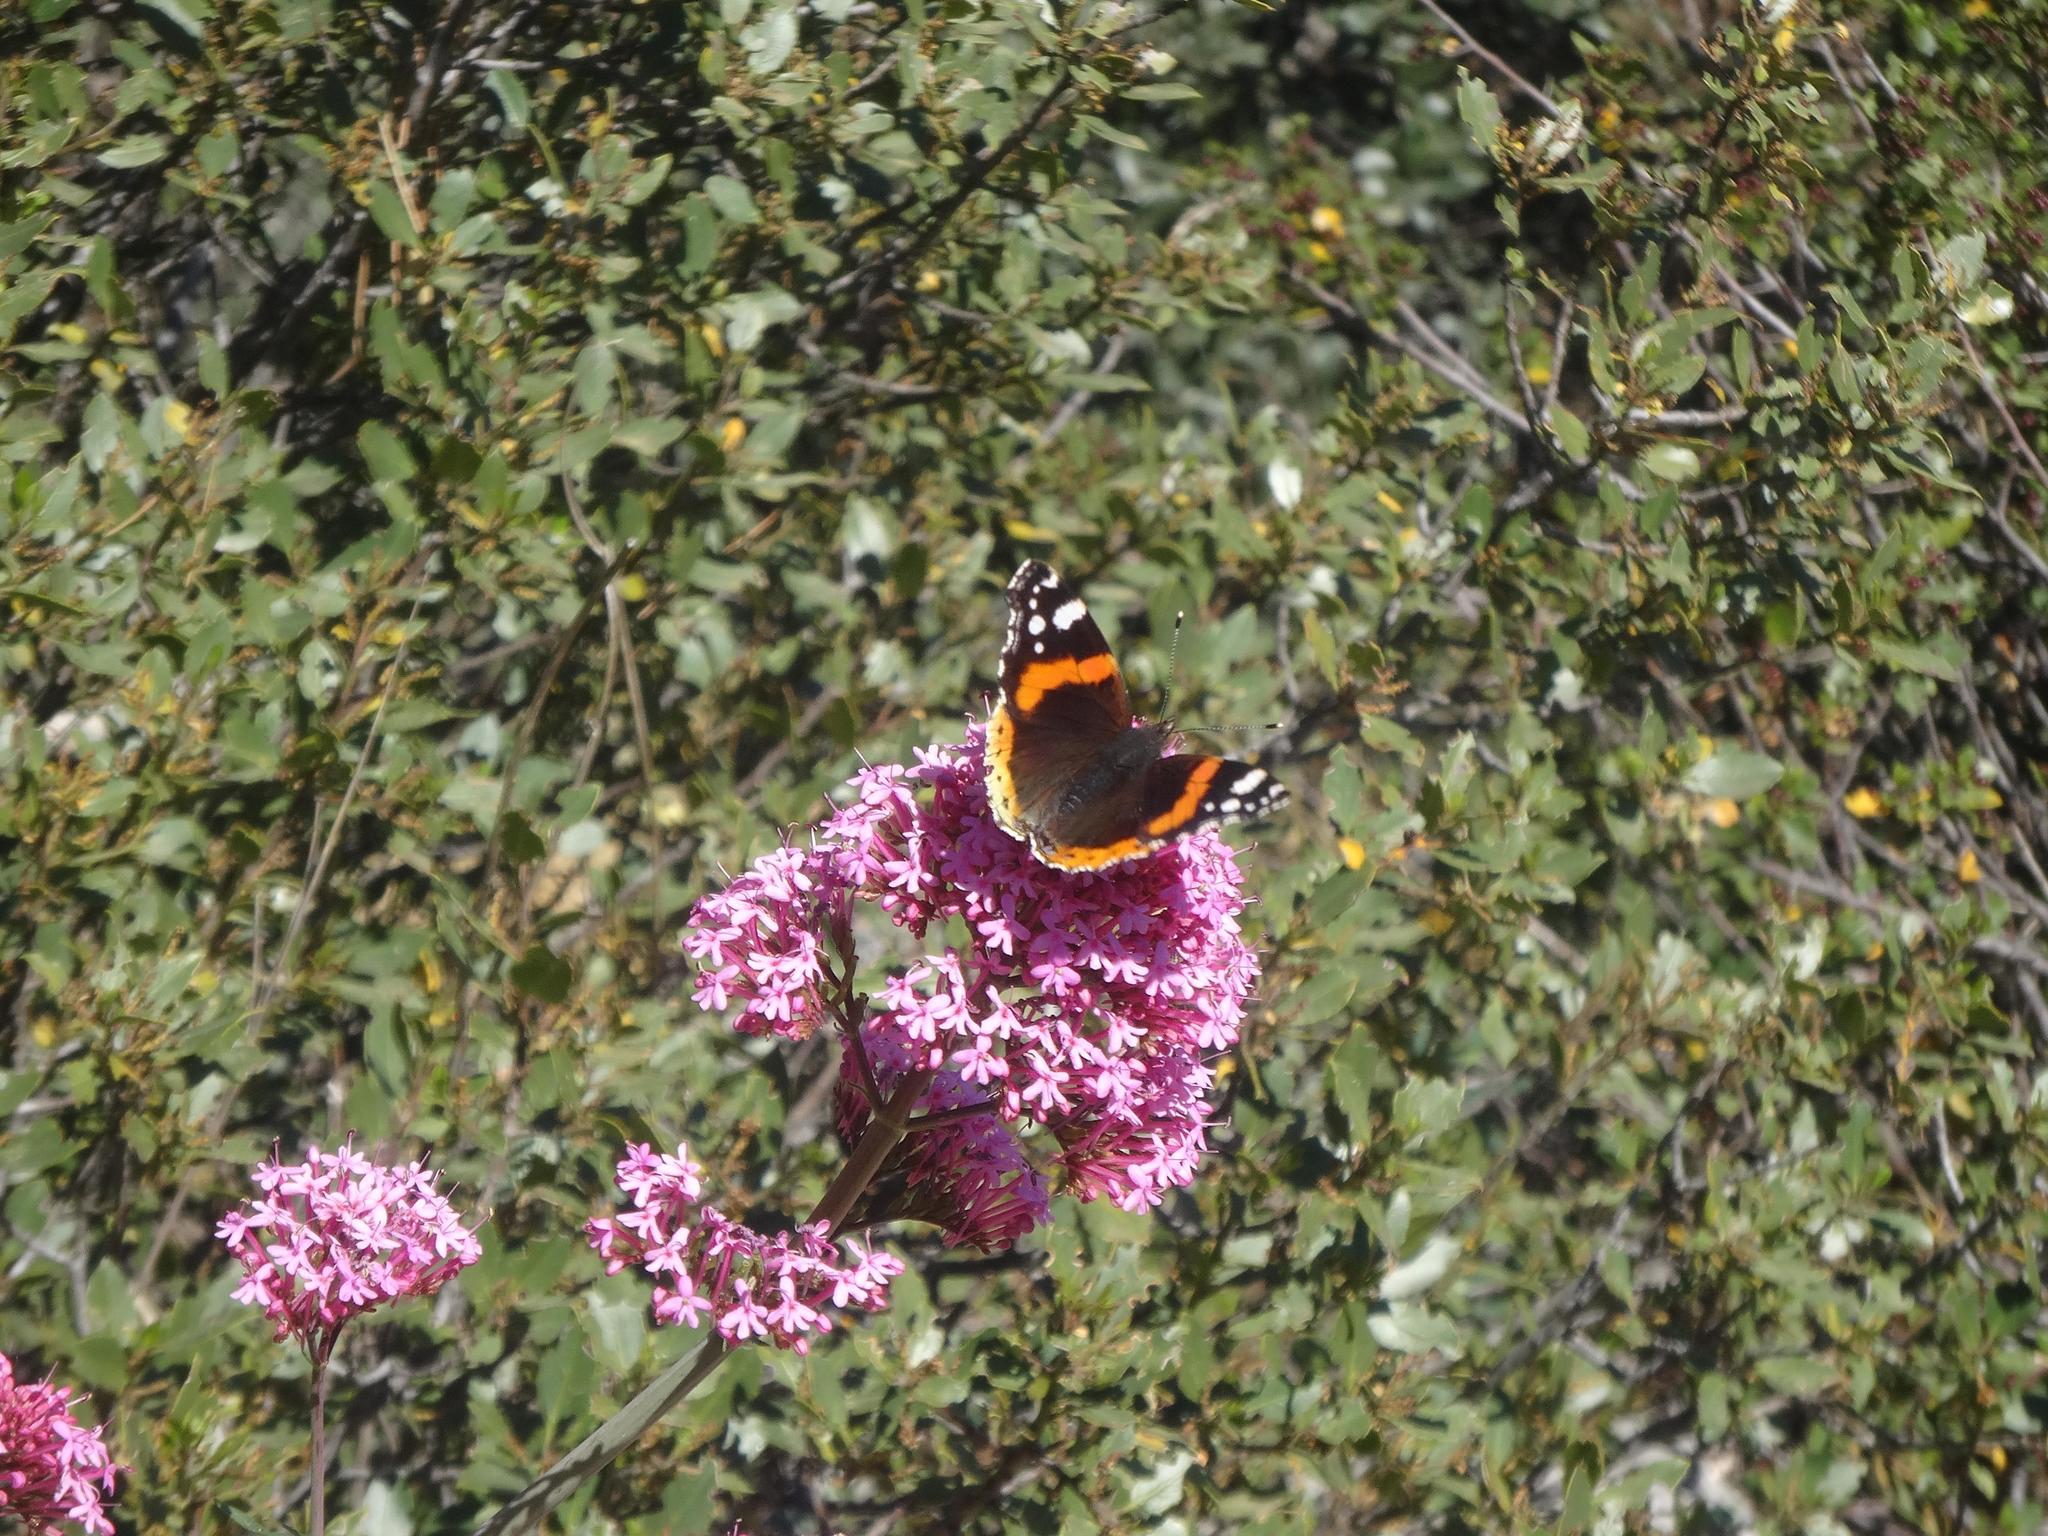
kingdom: Animalia
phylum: Arthropoda
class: Insecta
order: Lepidoptera
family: Nymphalidae
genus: Vanessa
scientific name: Vanessa atalanta
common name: Red admiral
